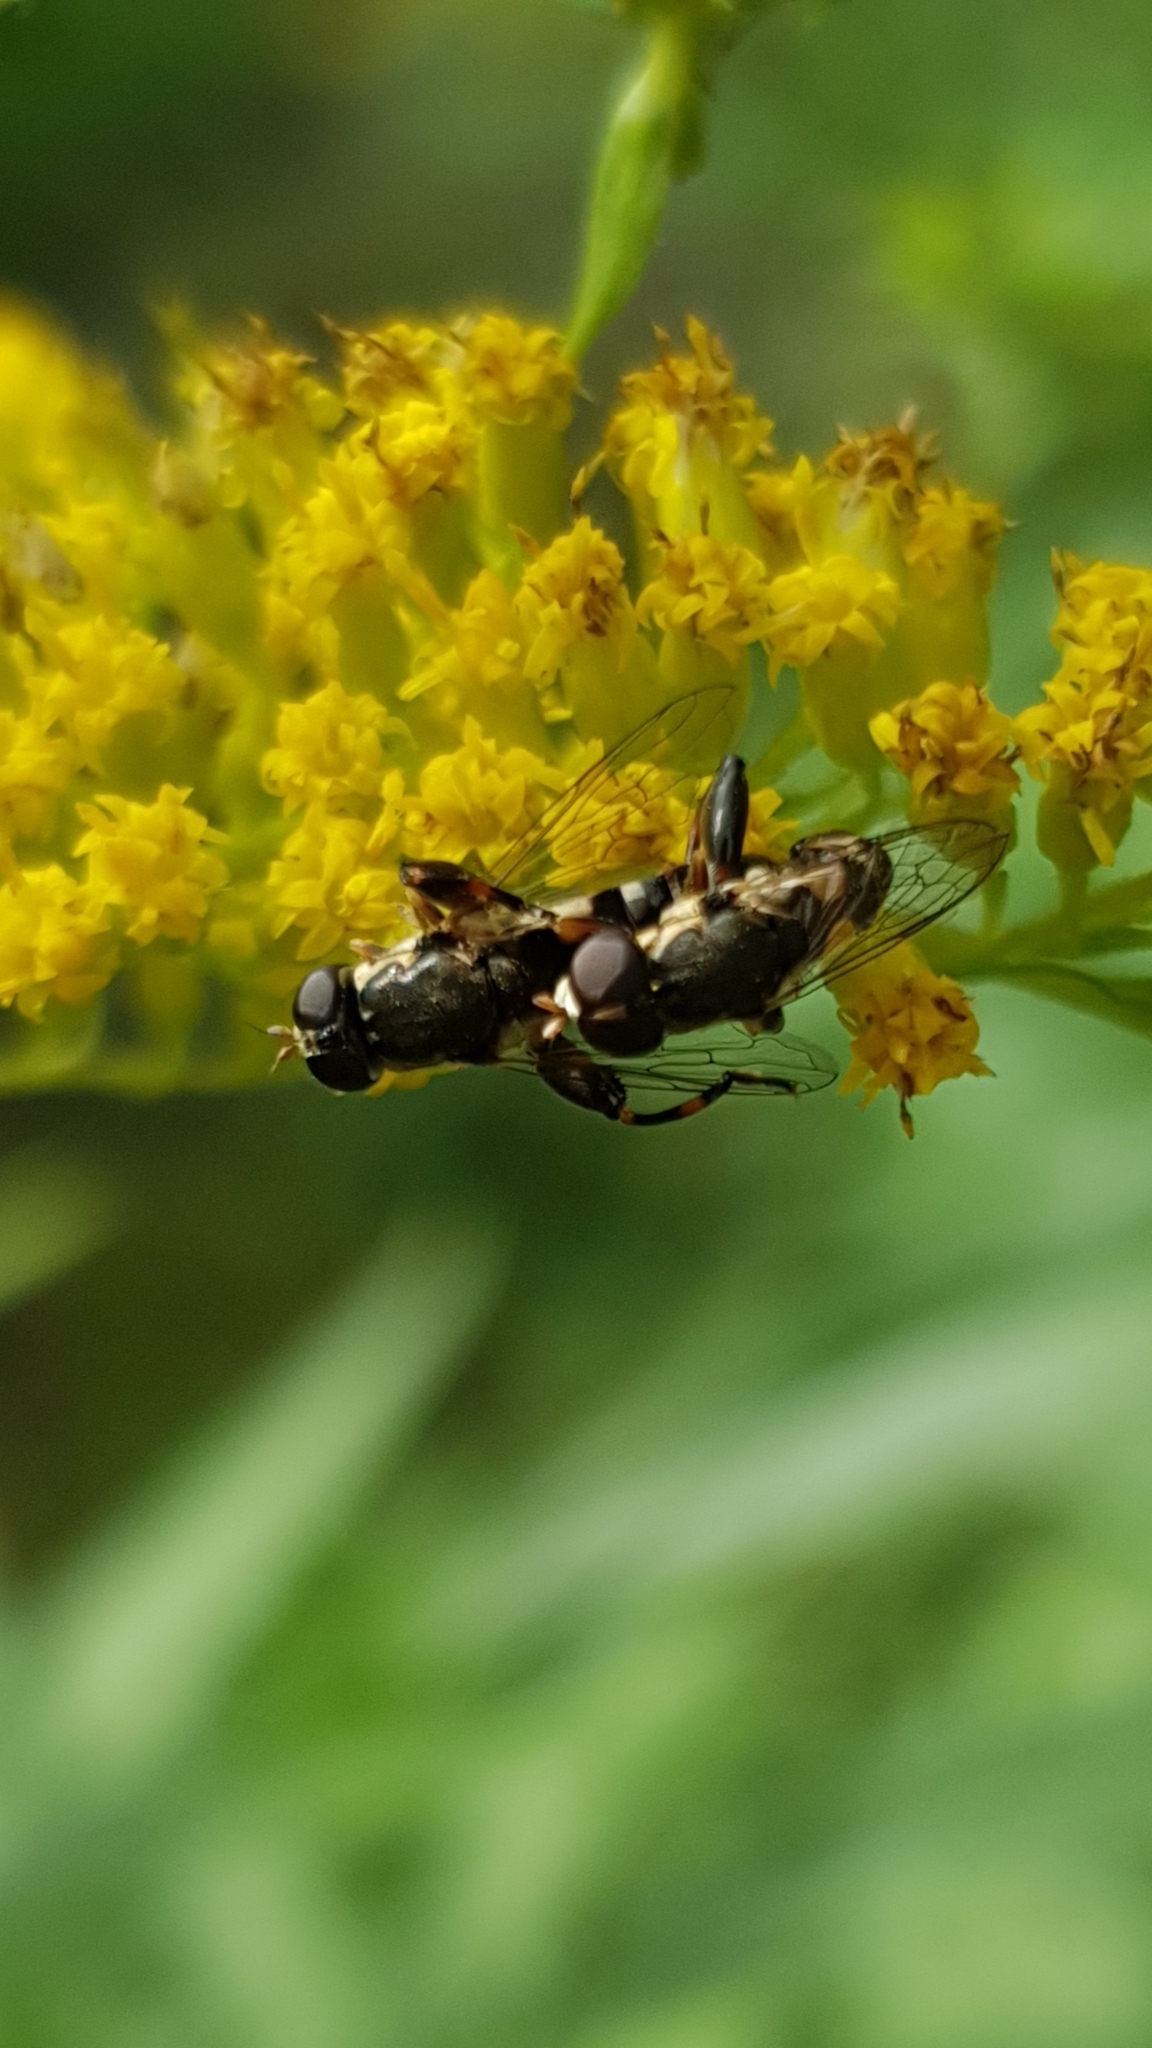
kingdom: Animalia
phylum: Arthropoda
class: Insecta
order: Diptera
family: Syrphidae
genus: Syritta
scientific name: Syritta pipiens
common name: Hover fly
